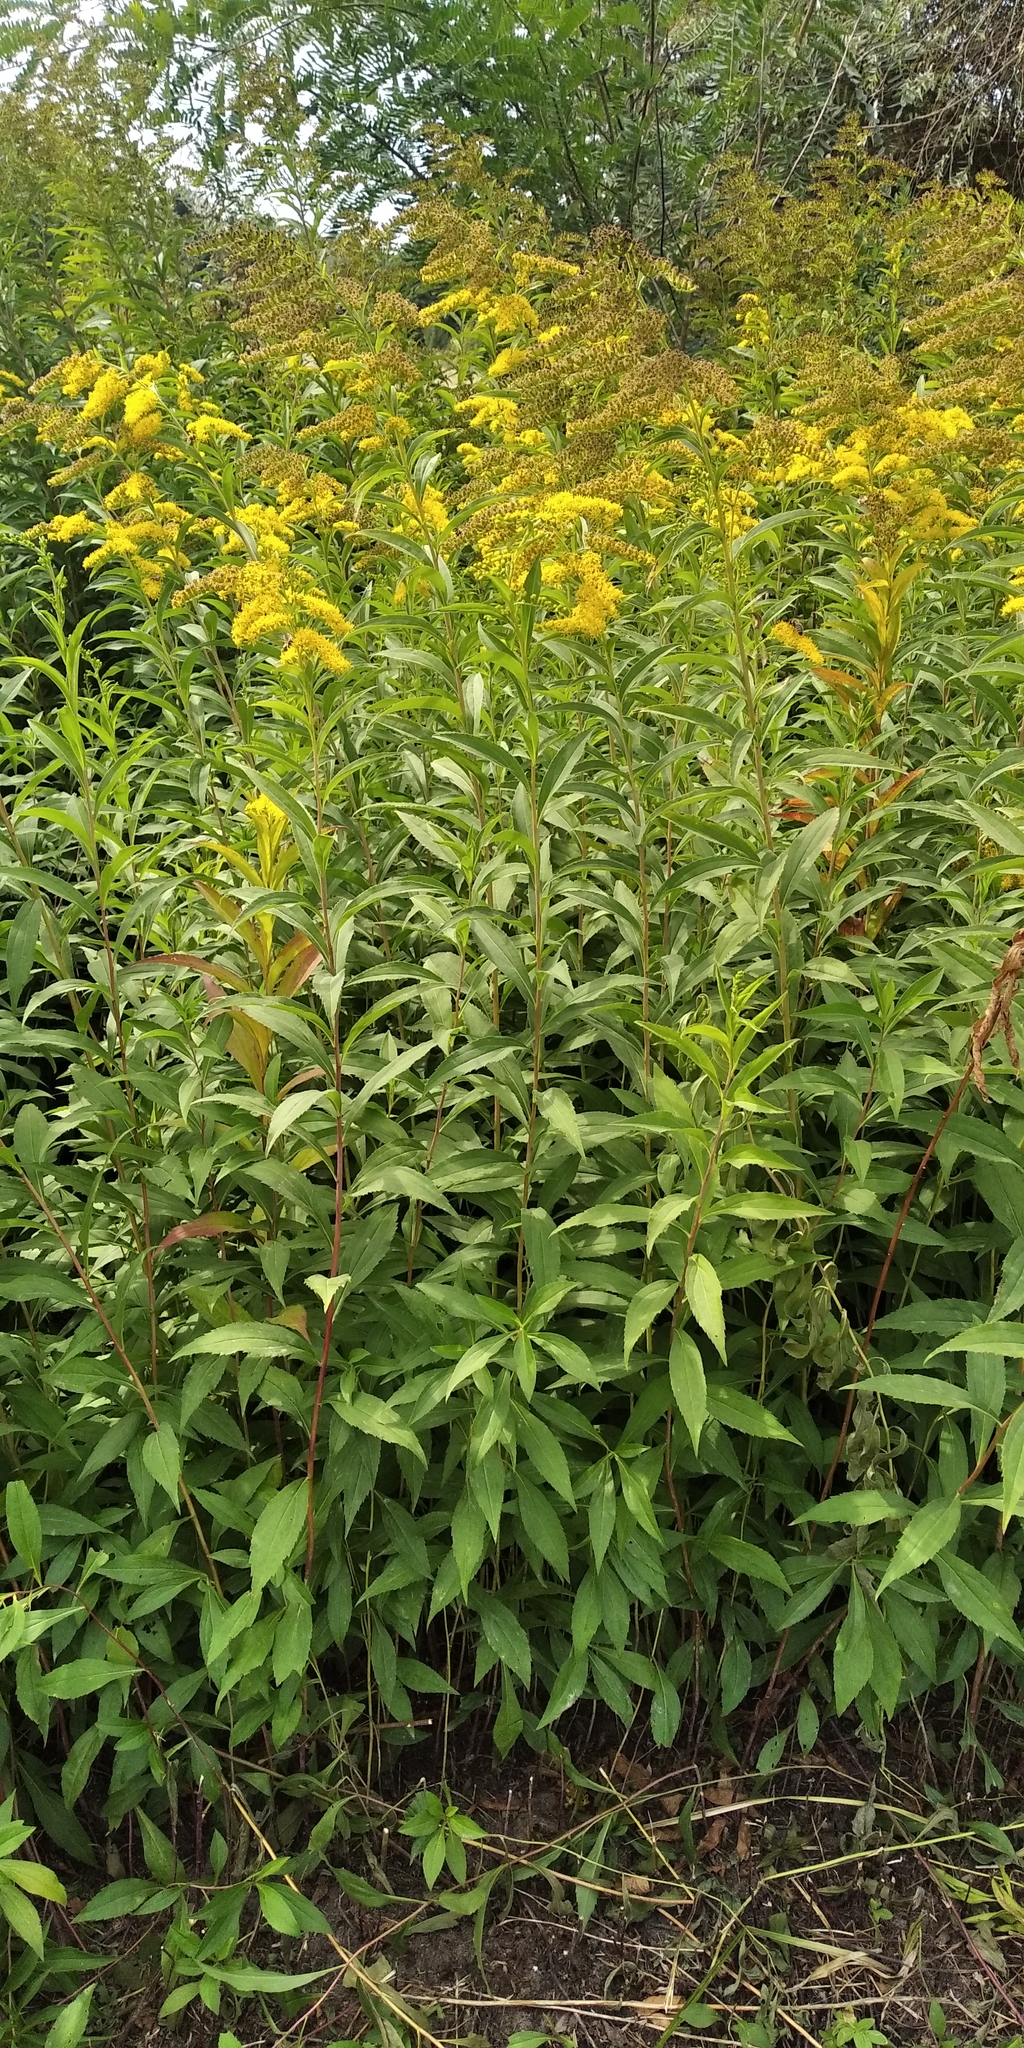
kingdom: Plantae
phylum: Tracheophyta
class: Magnoliopsida
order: Asterales
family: Asteraceae
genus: Solidago
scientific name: Solidago gigantea
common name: Giant goldenrod
